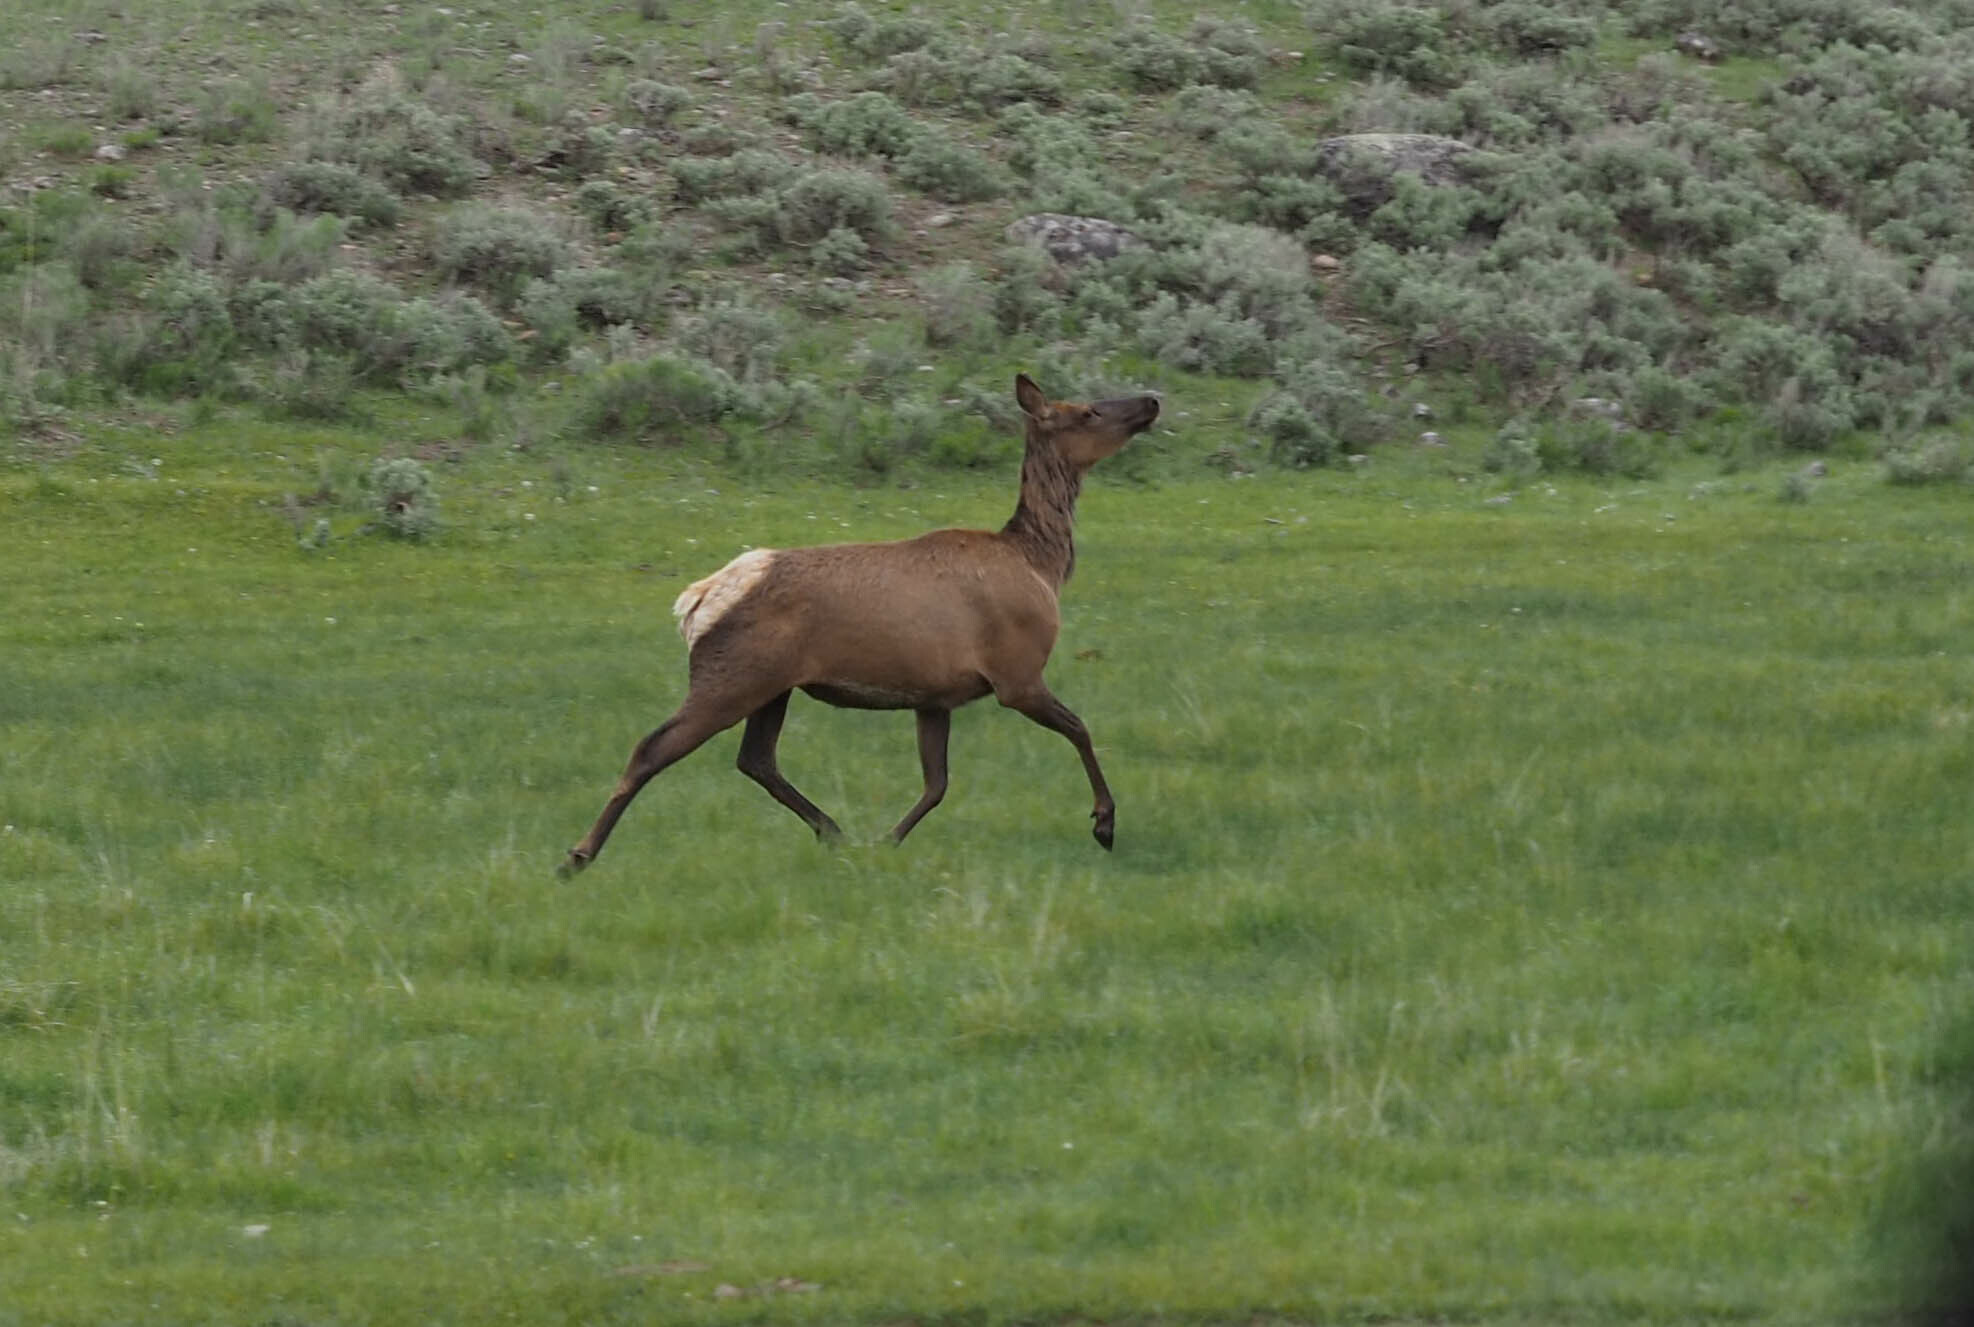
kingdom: Animalia
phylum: Chordata
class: Mammalia
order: Artiodactyla
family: Cervidae
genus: Cervus
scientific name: Cervus elaphus
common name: Red deer
